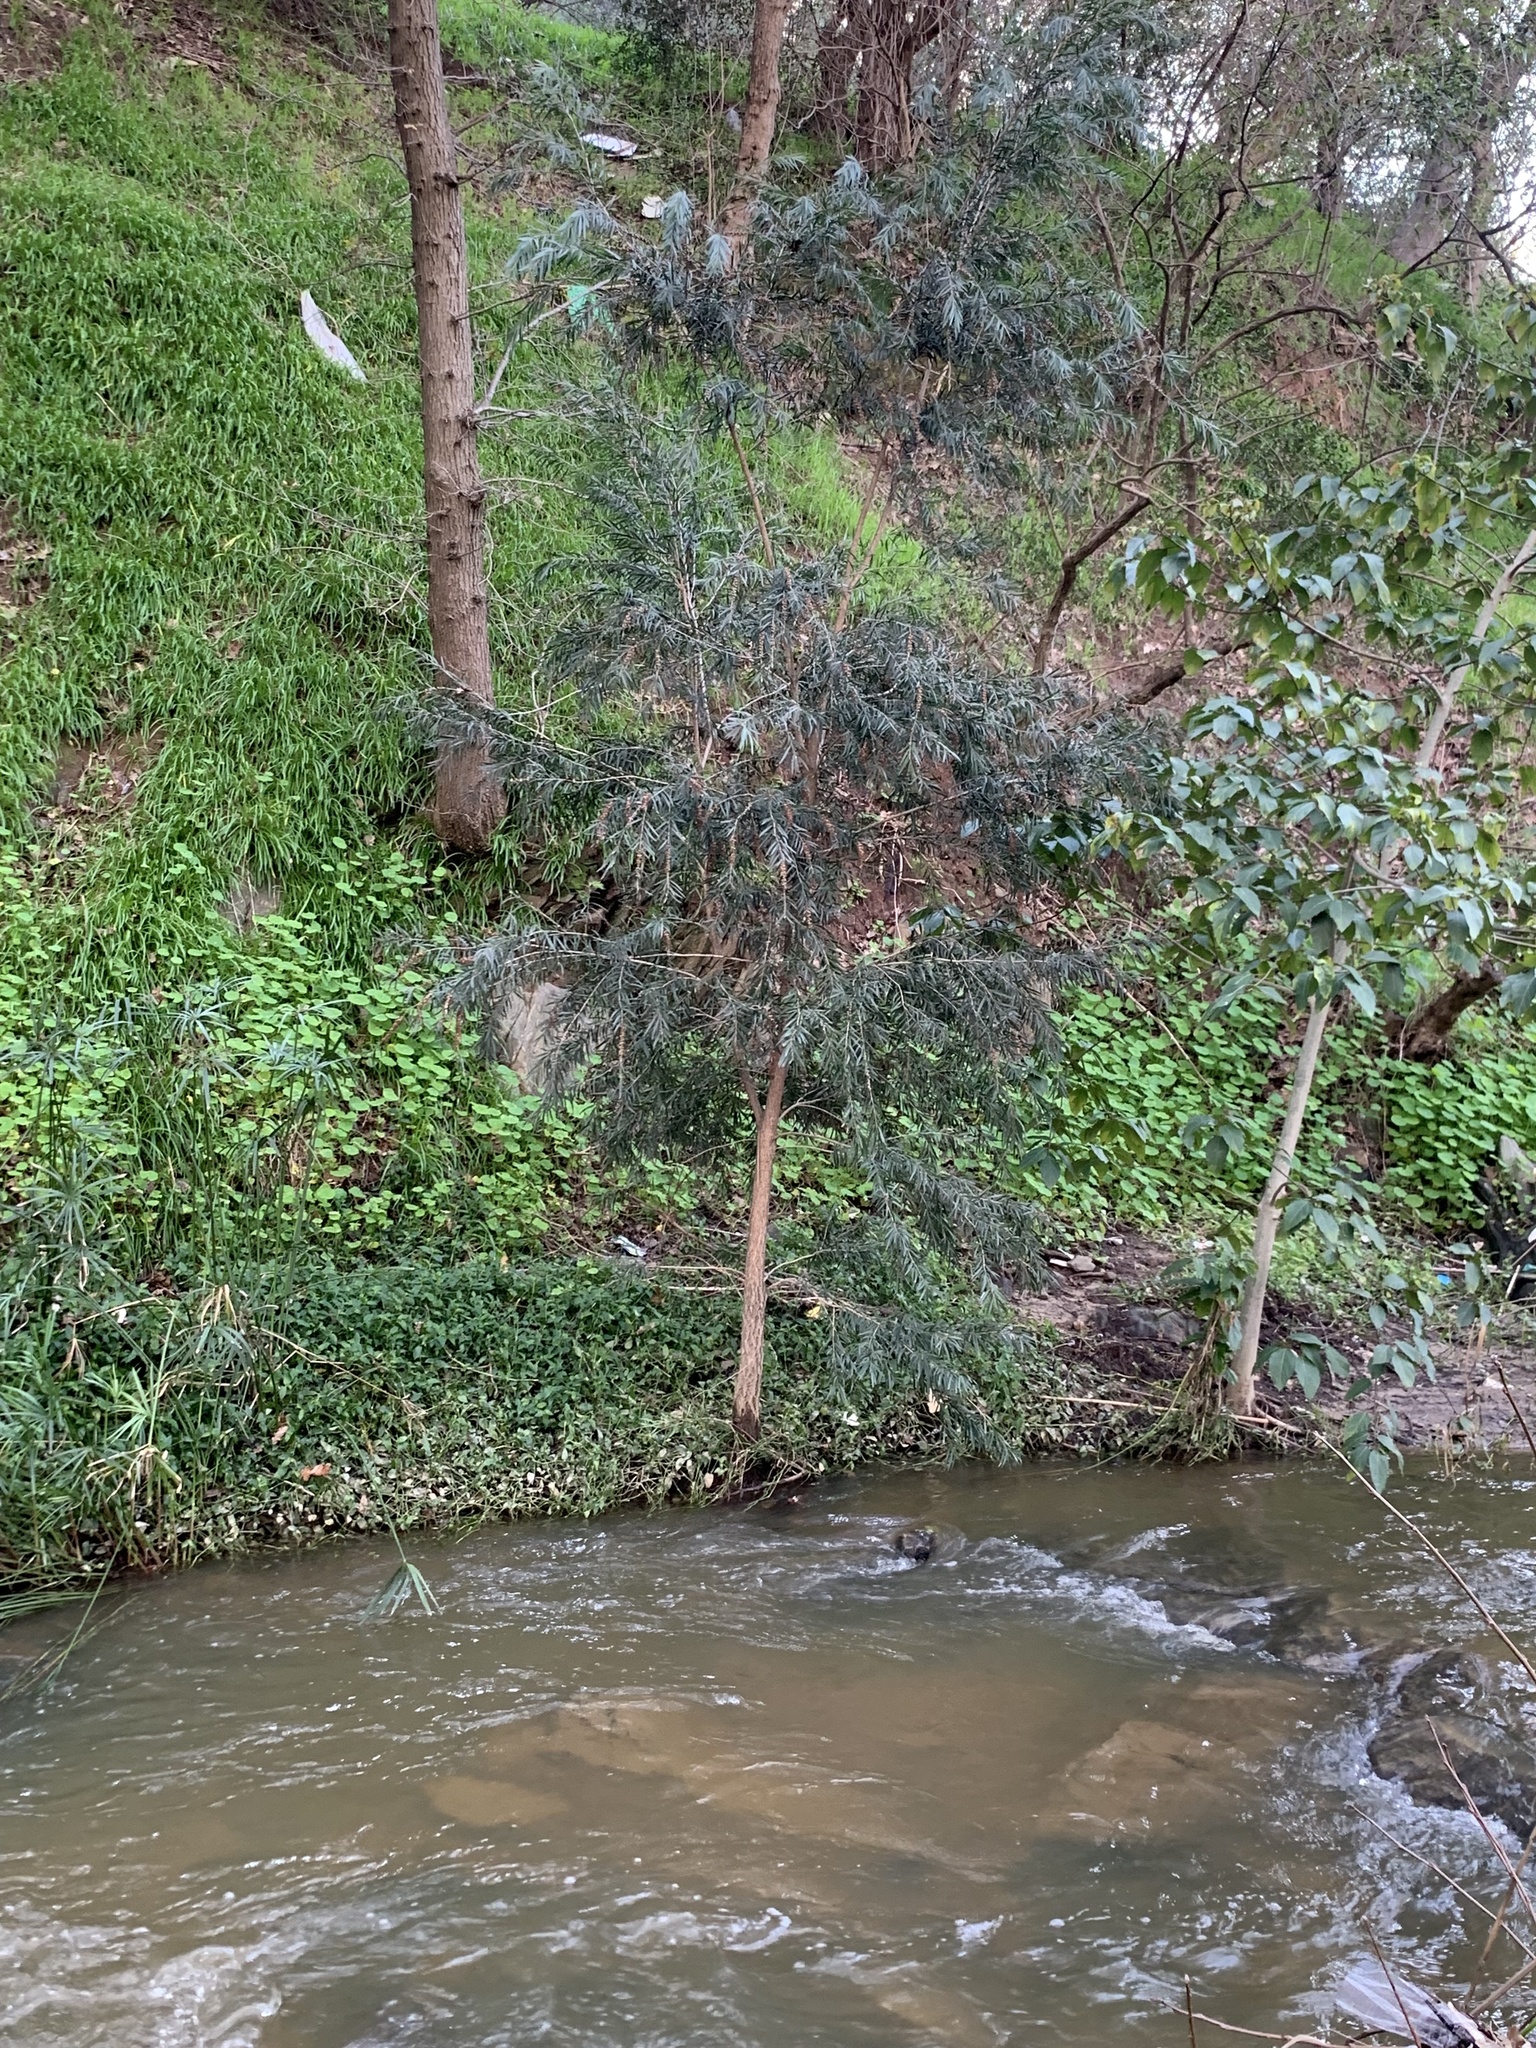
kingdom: Plantae
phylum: Tracheophyta
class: Magnoliopsida
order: Myrtales
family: Myrtaceae
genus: Callistemon
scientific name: Callistemon viminalis
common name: Drooping bottlebrush
